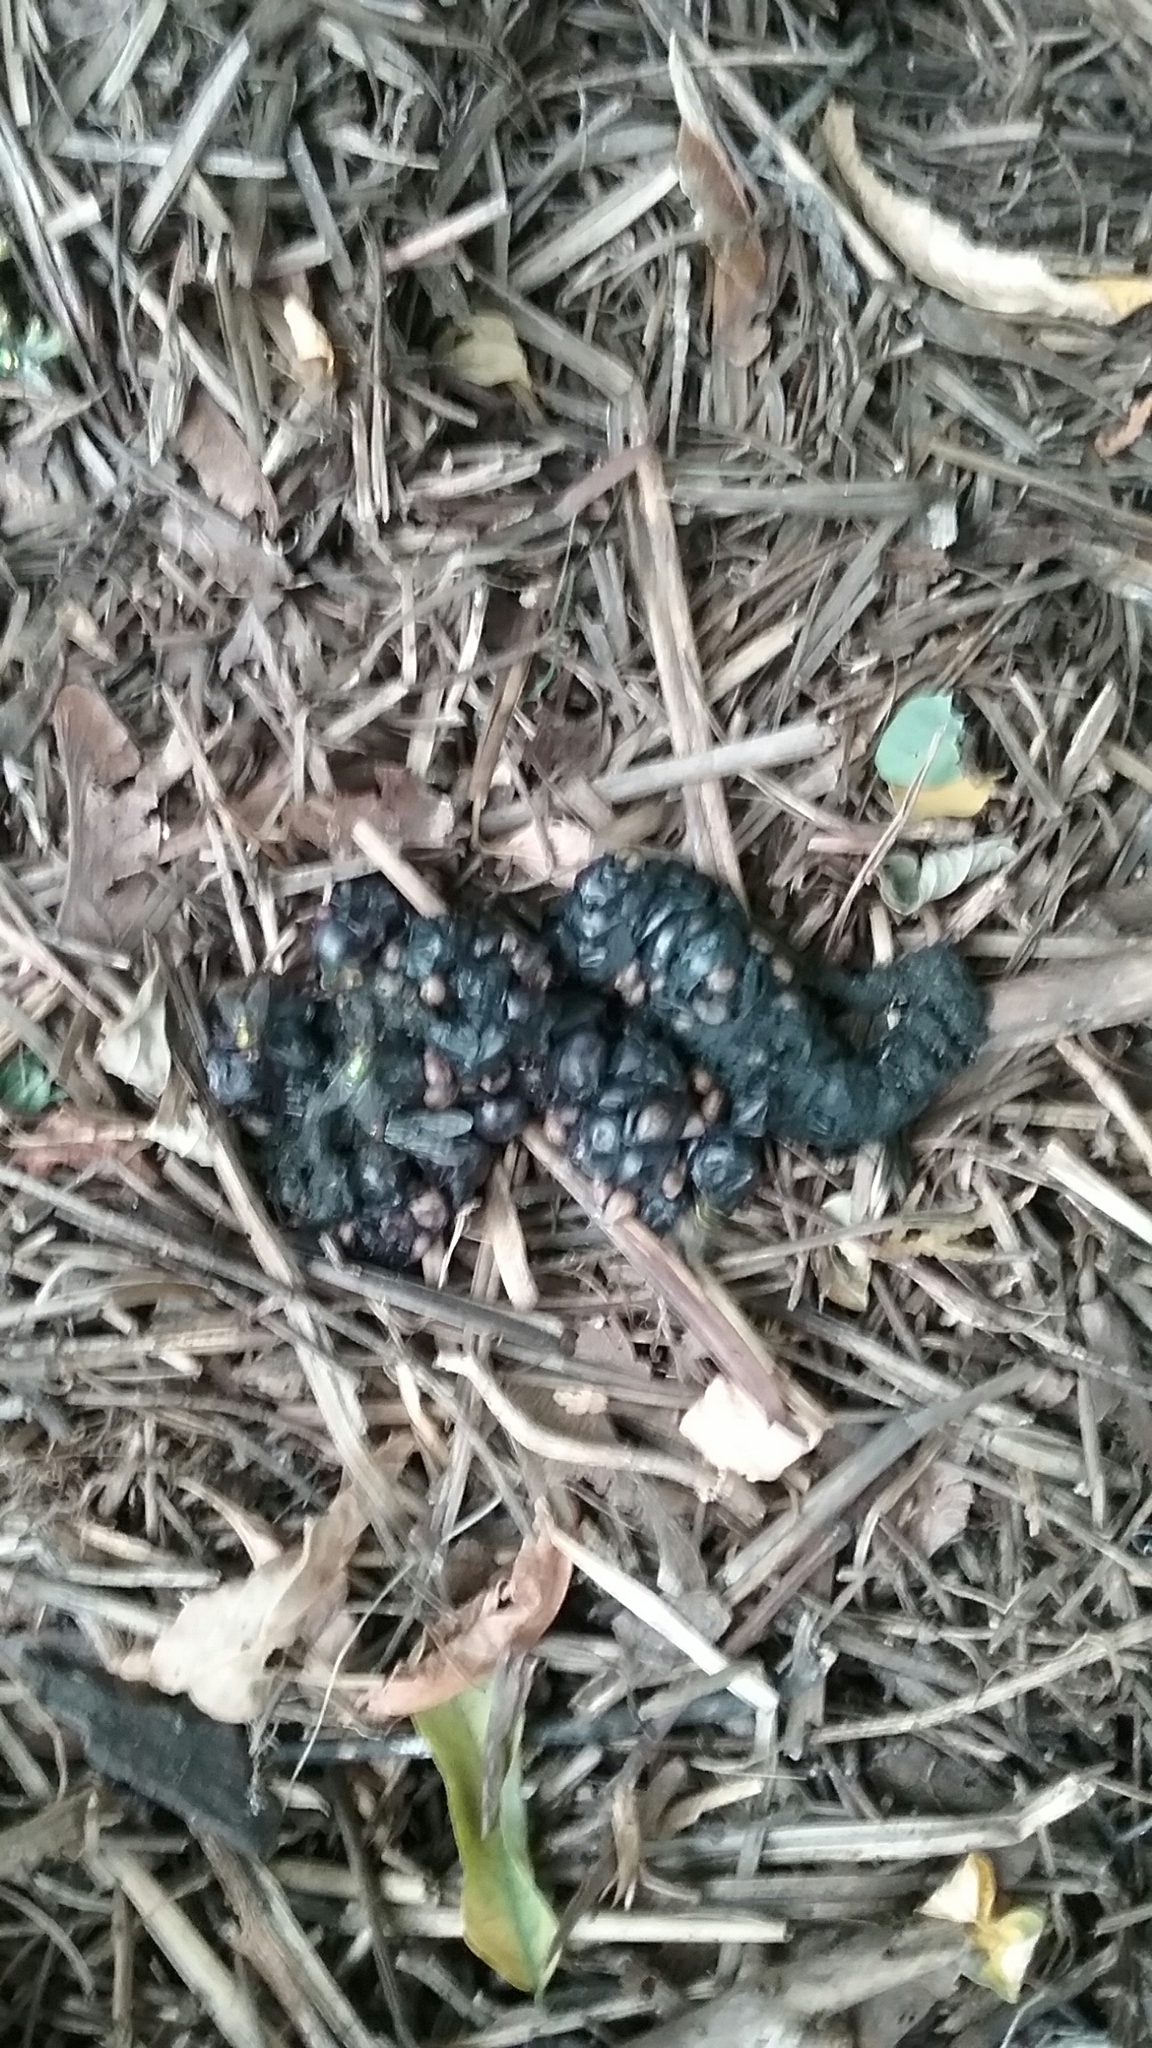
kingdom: Animalia
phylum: Chordata
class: Mammalia
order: Carnivora
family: Procyonidae
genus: Procyon
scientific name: Procyon lotor
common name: Raccoon
